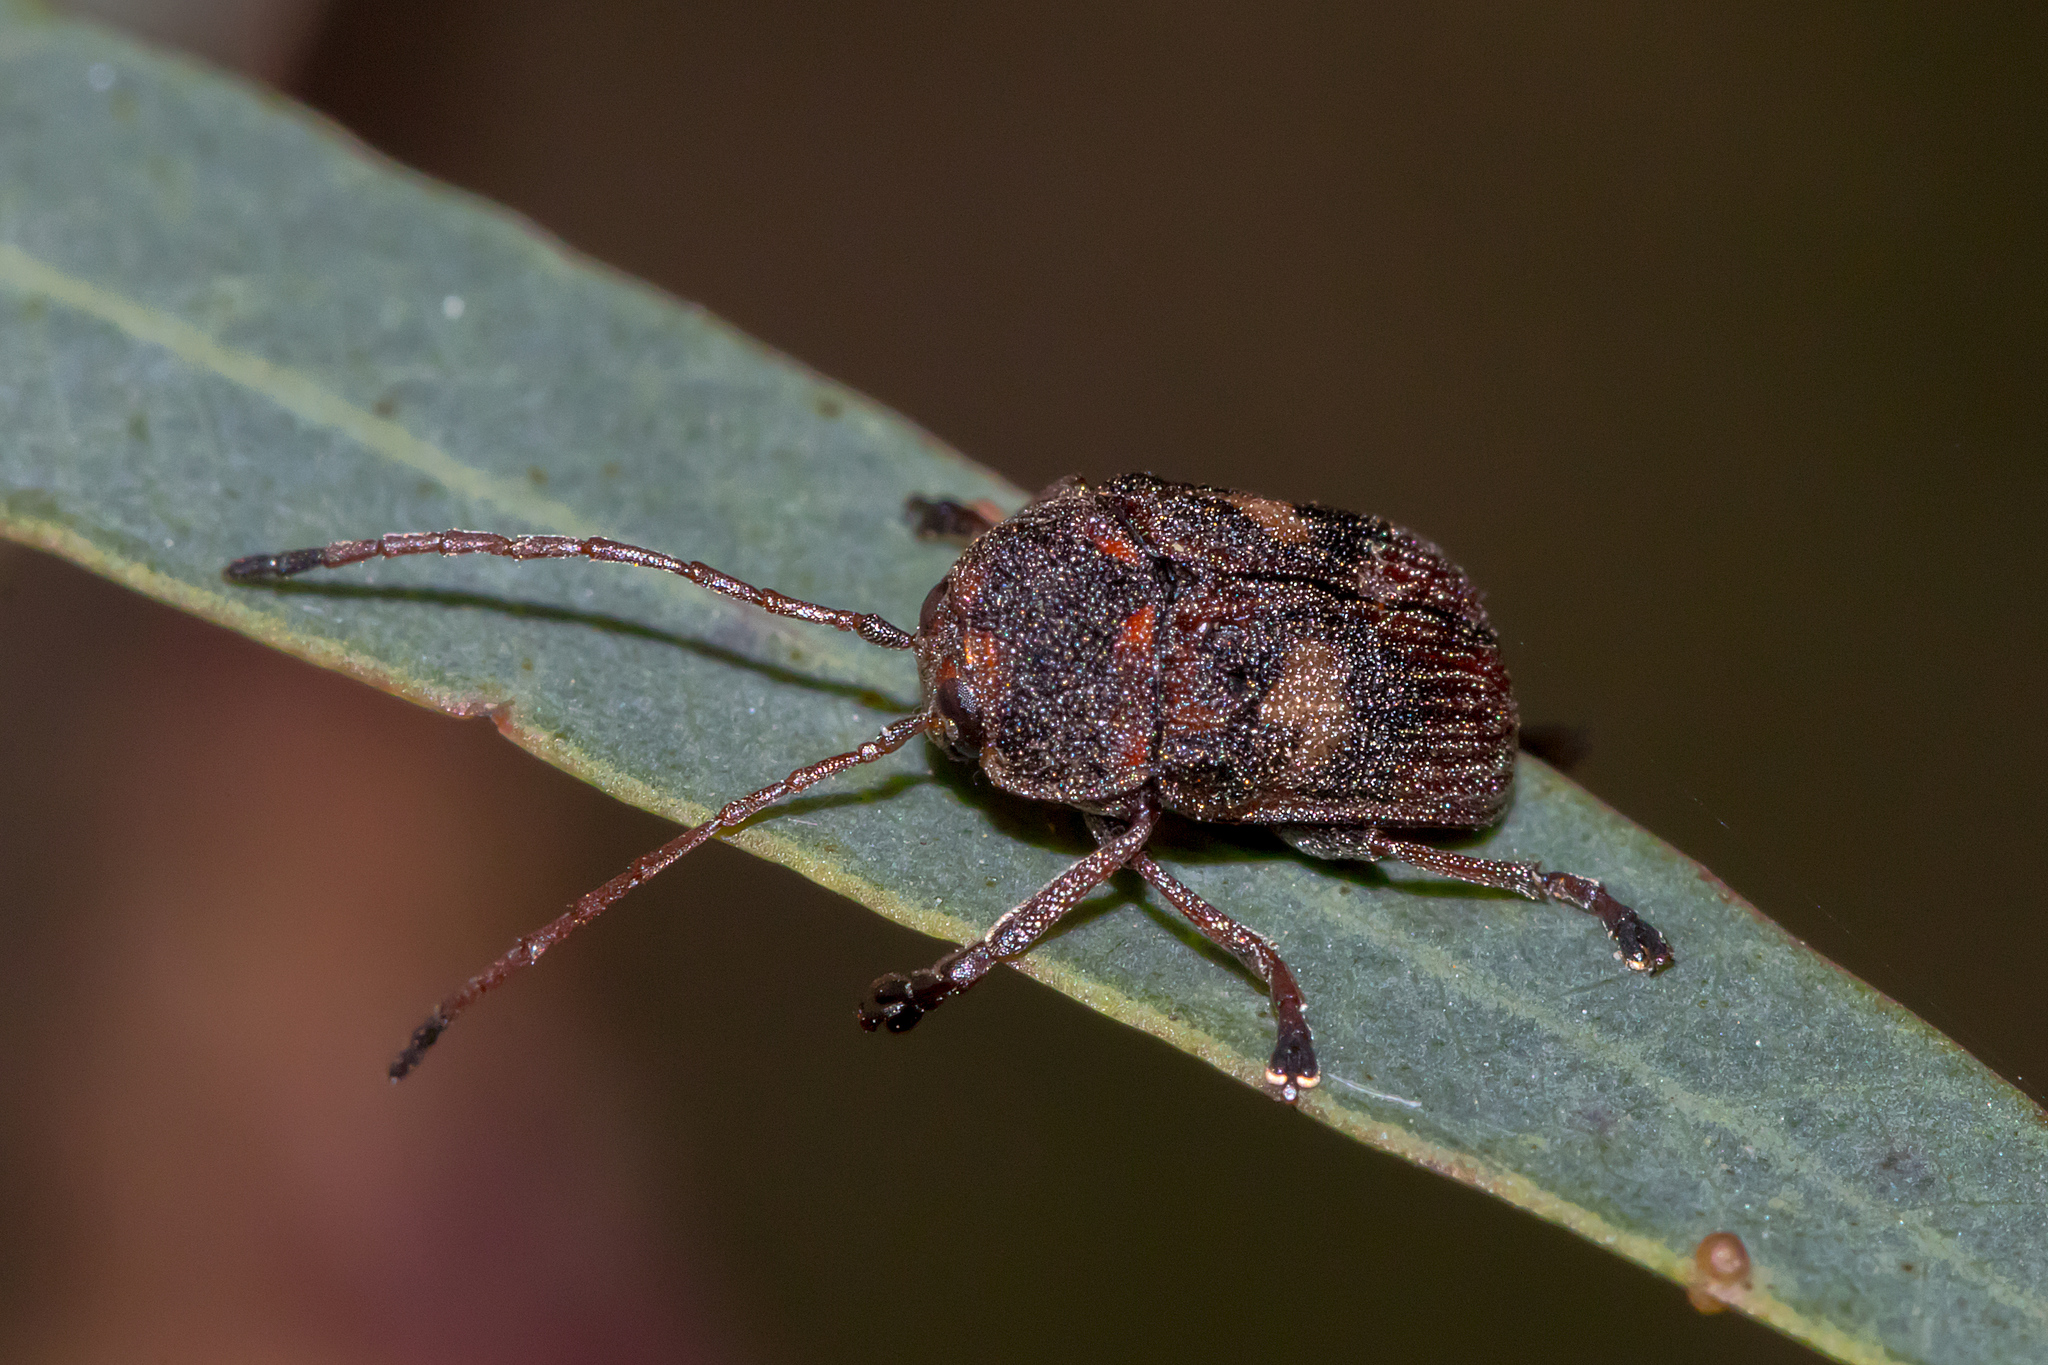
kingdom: Animalia
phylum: Arthropoda
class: Insecta
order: Coleoptera
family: Chrysomelidae
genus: Cadmus
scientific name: Cadmus
